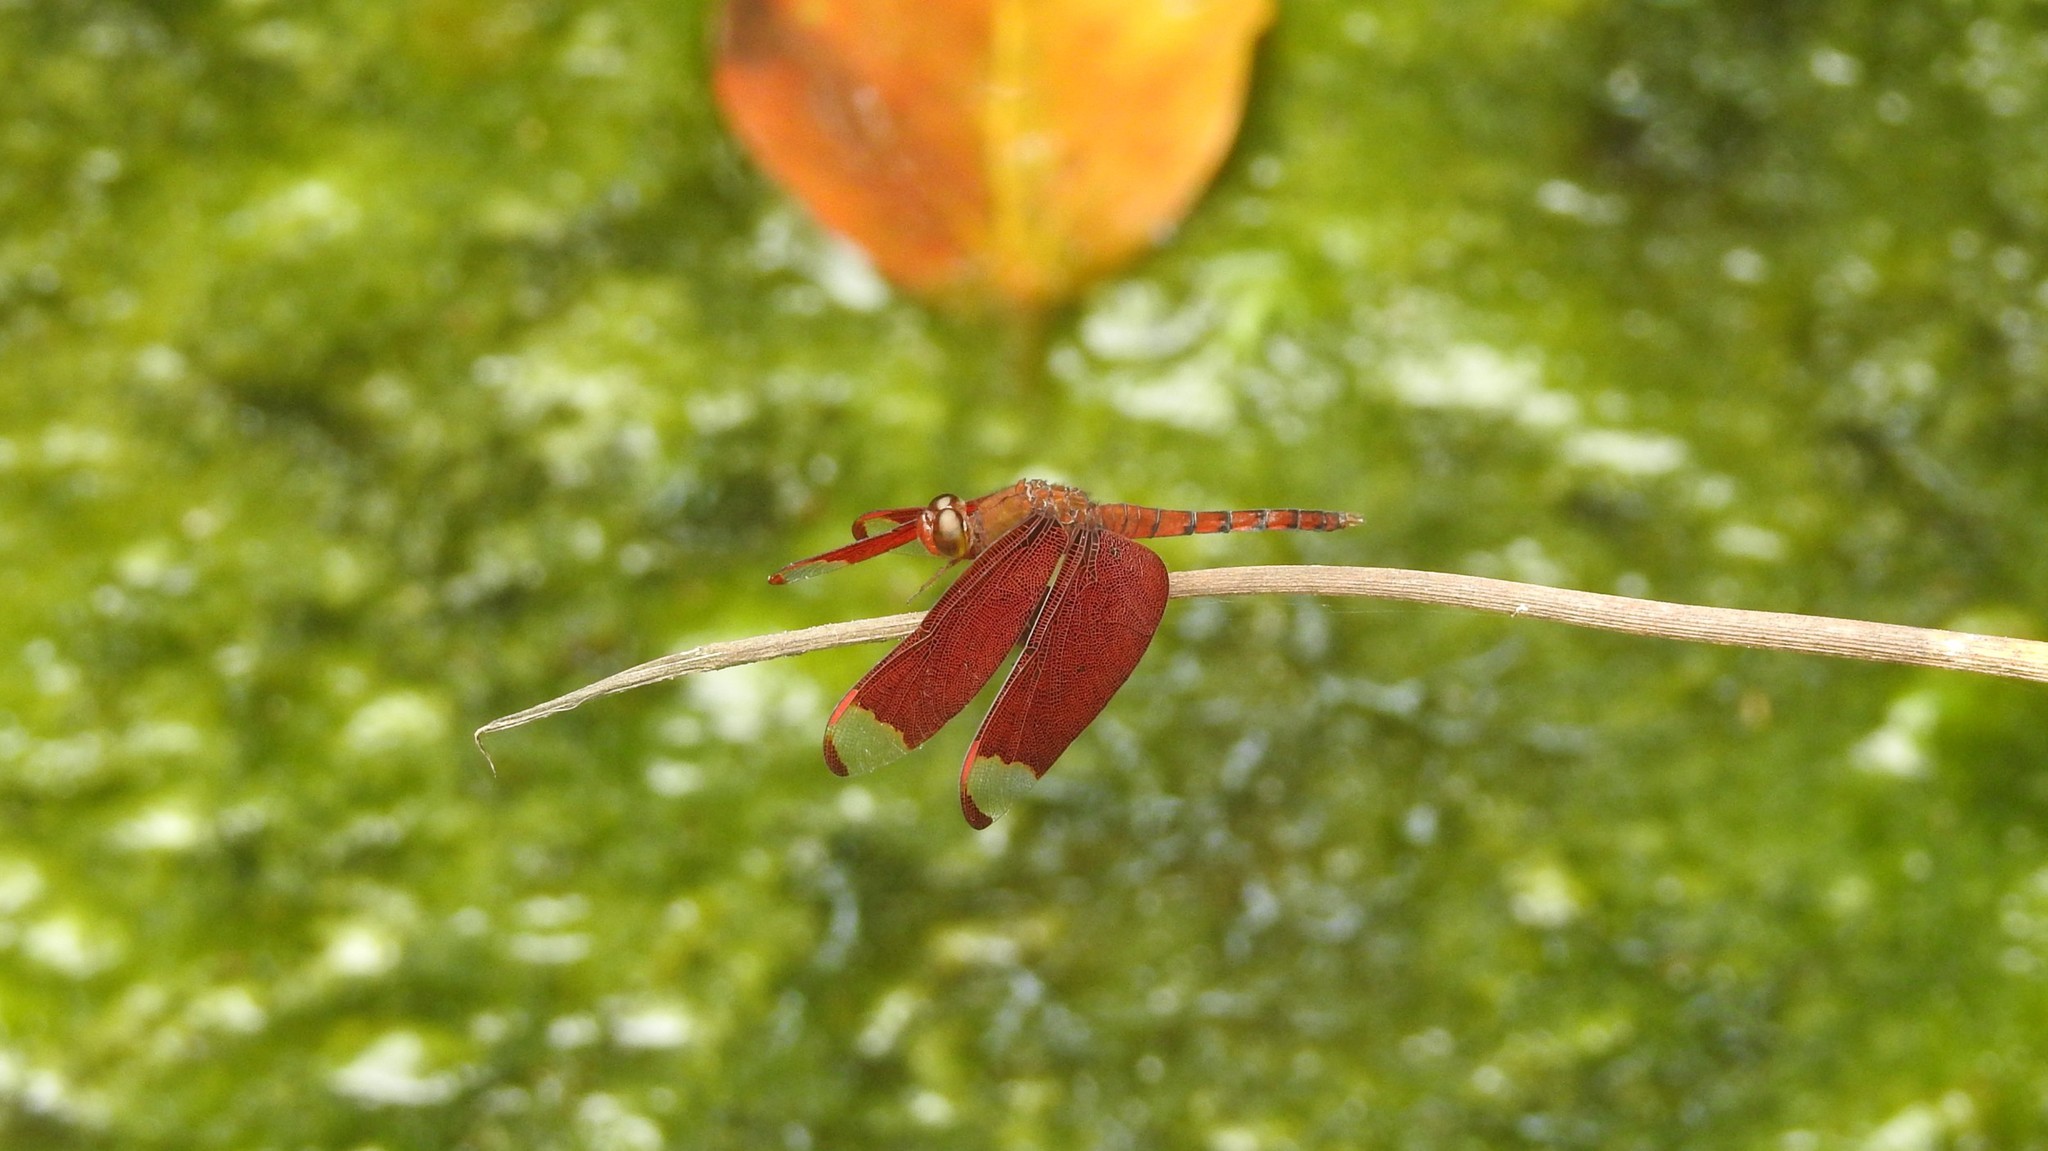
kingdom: Animalia
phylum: Arthropoda
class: Insecta
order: Odonata
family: Libellulidae
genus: Neurothemis
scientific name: Neurothemis fulvia
